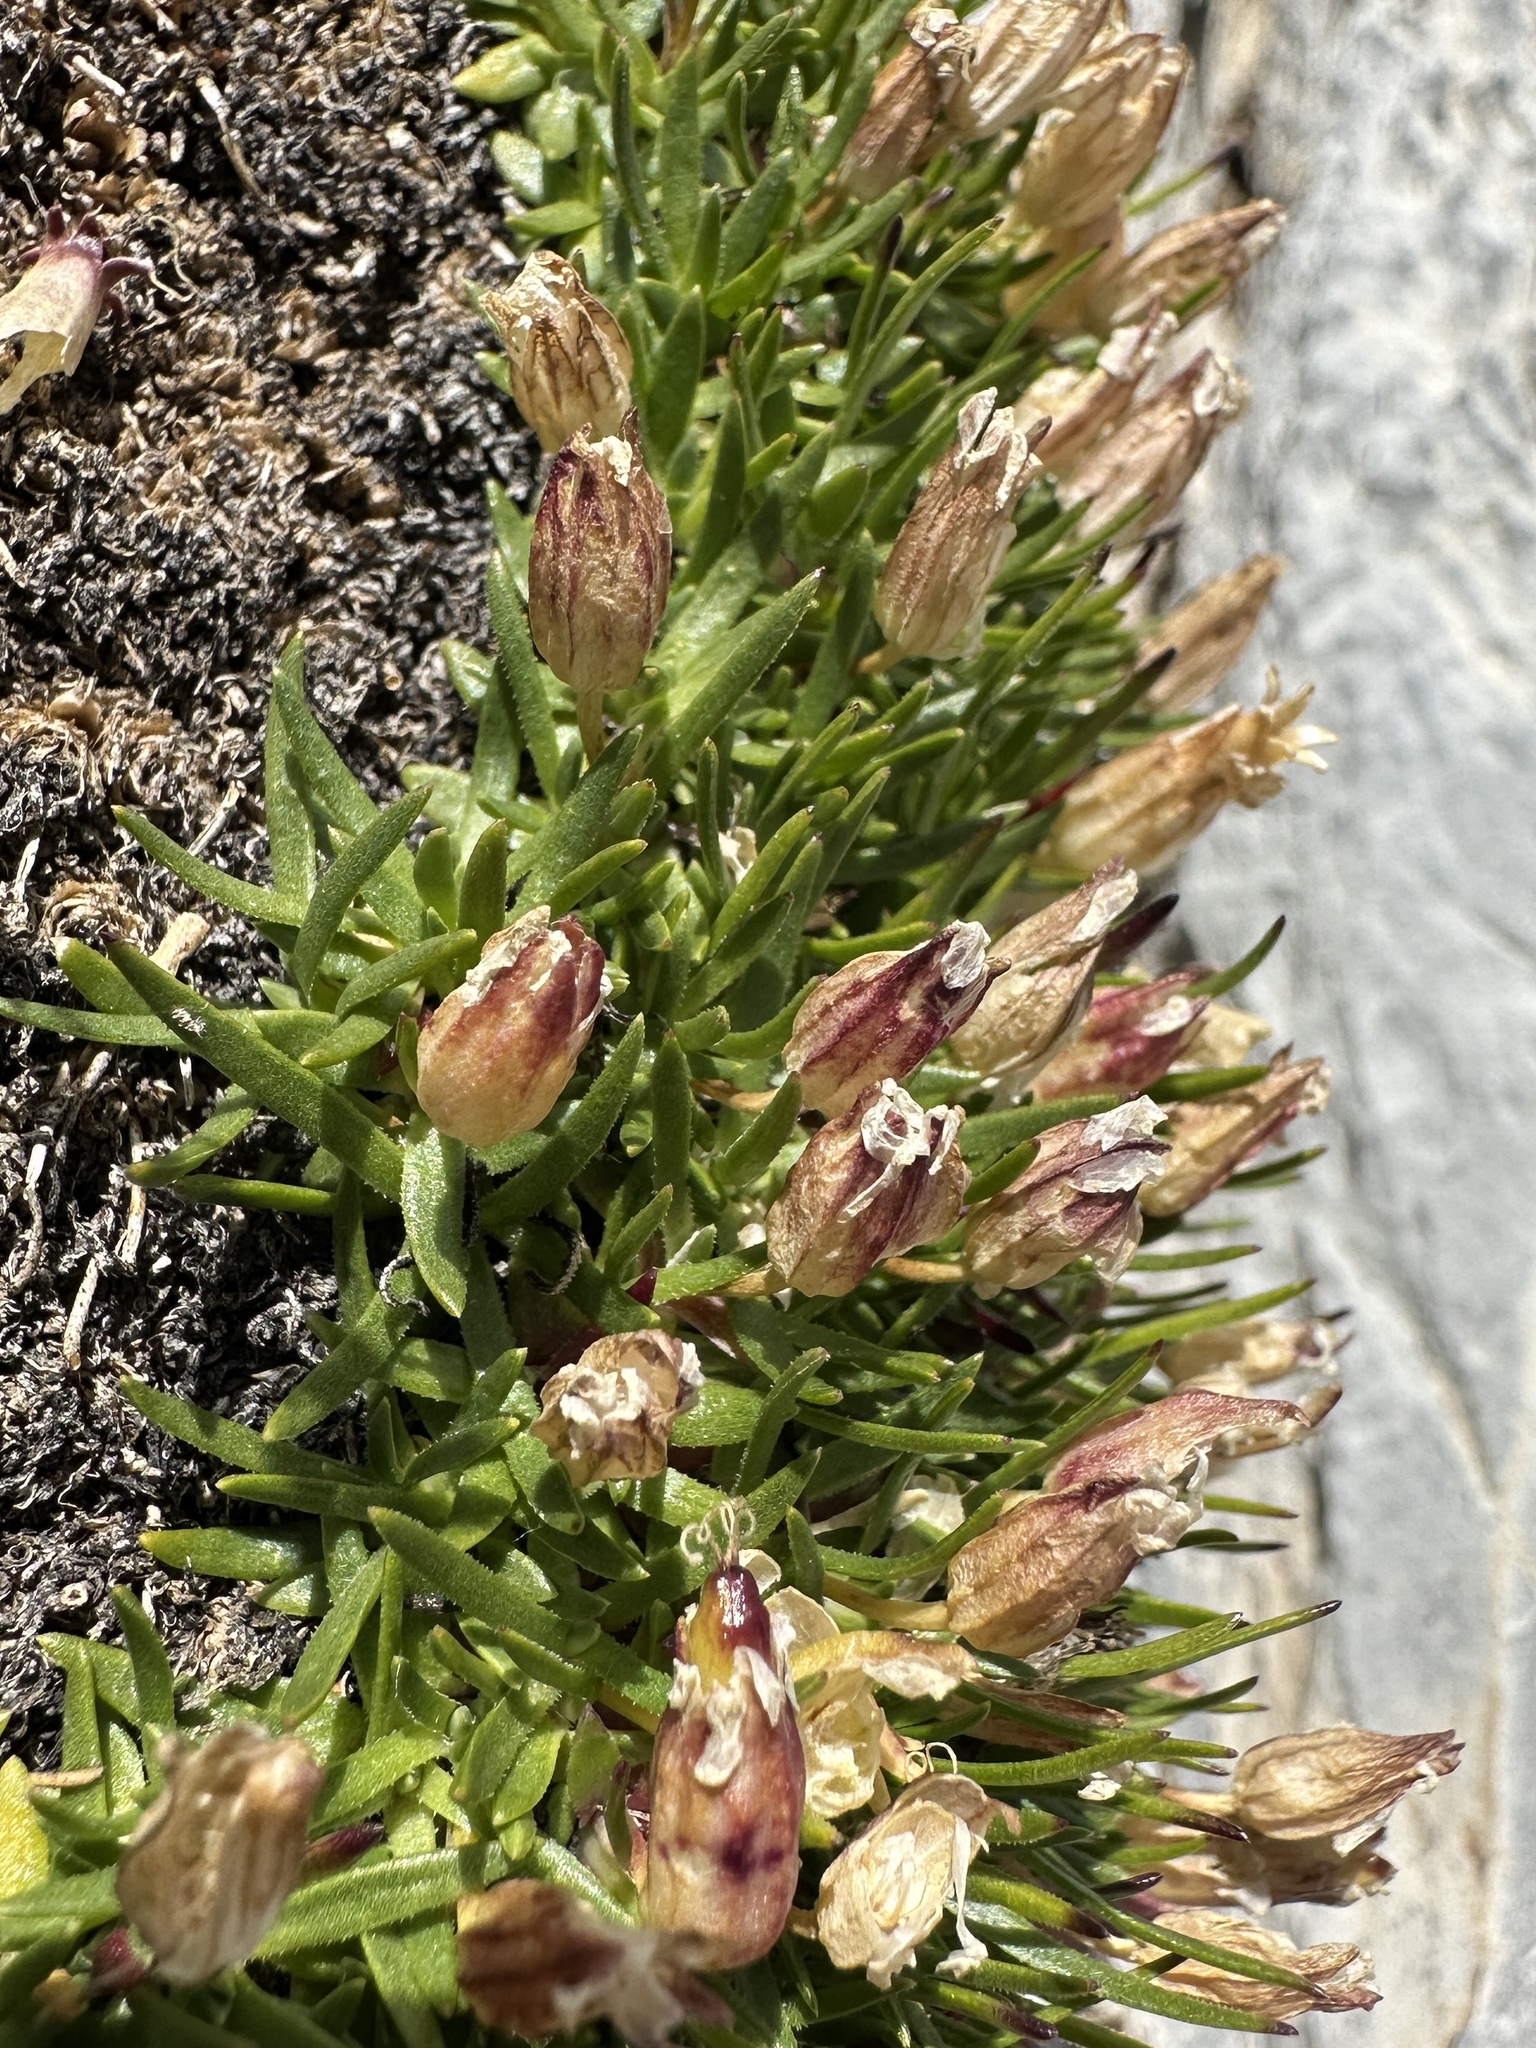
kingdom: Plantae
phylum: Tracheophyta
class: Magnoliopsida
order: Caryophyllales
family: Caryophyllaceae
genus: Silene
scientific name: Silene acaulis
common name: Moss campion
